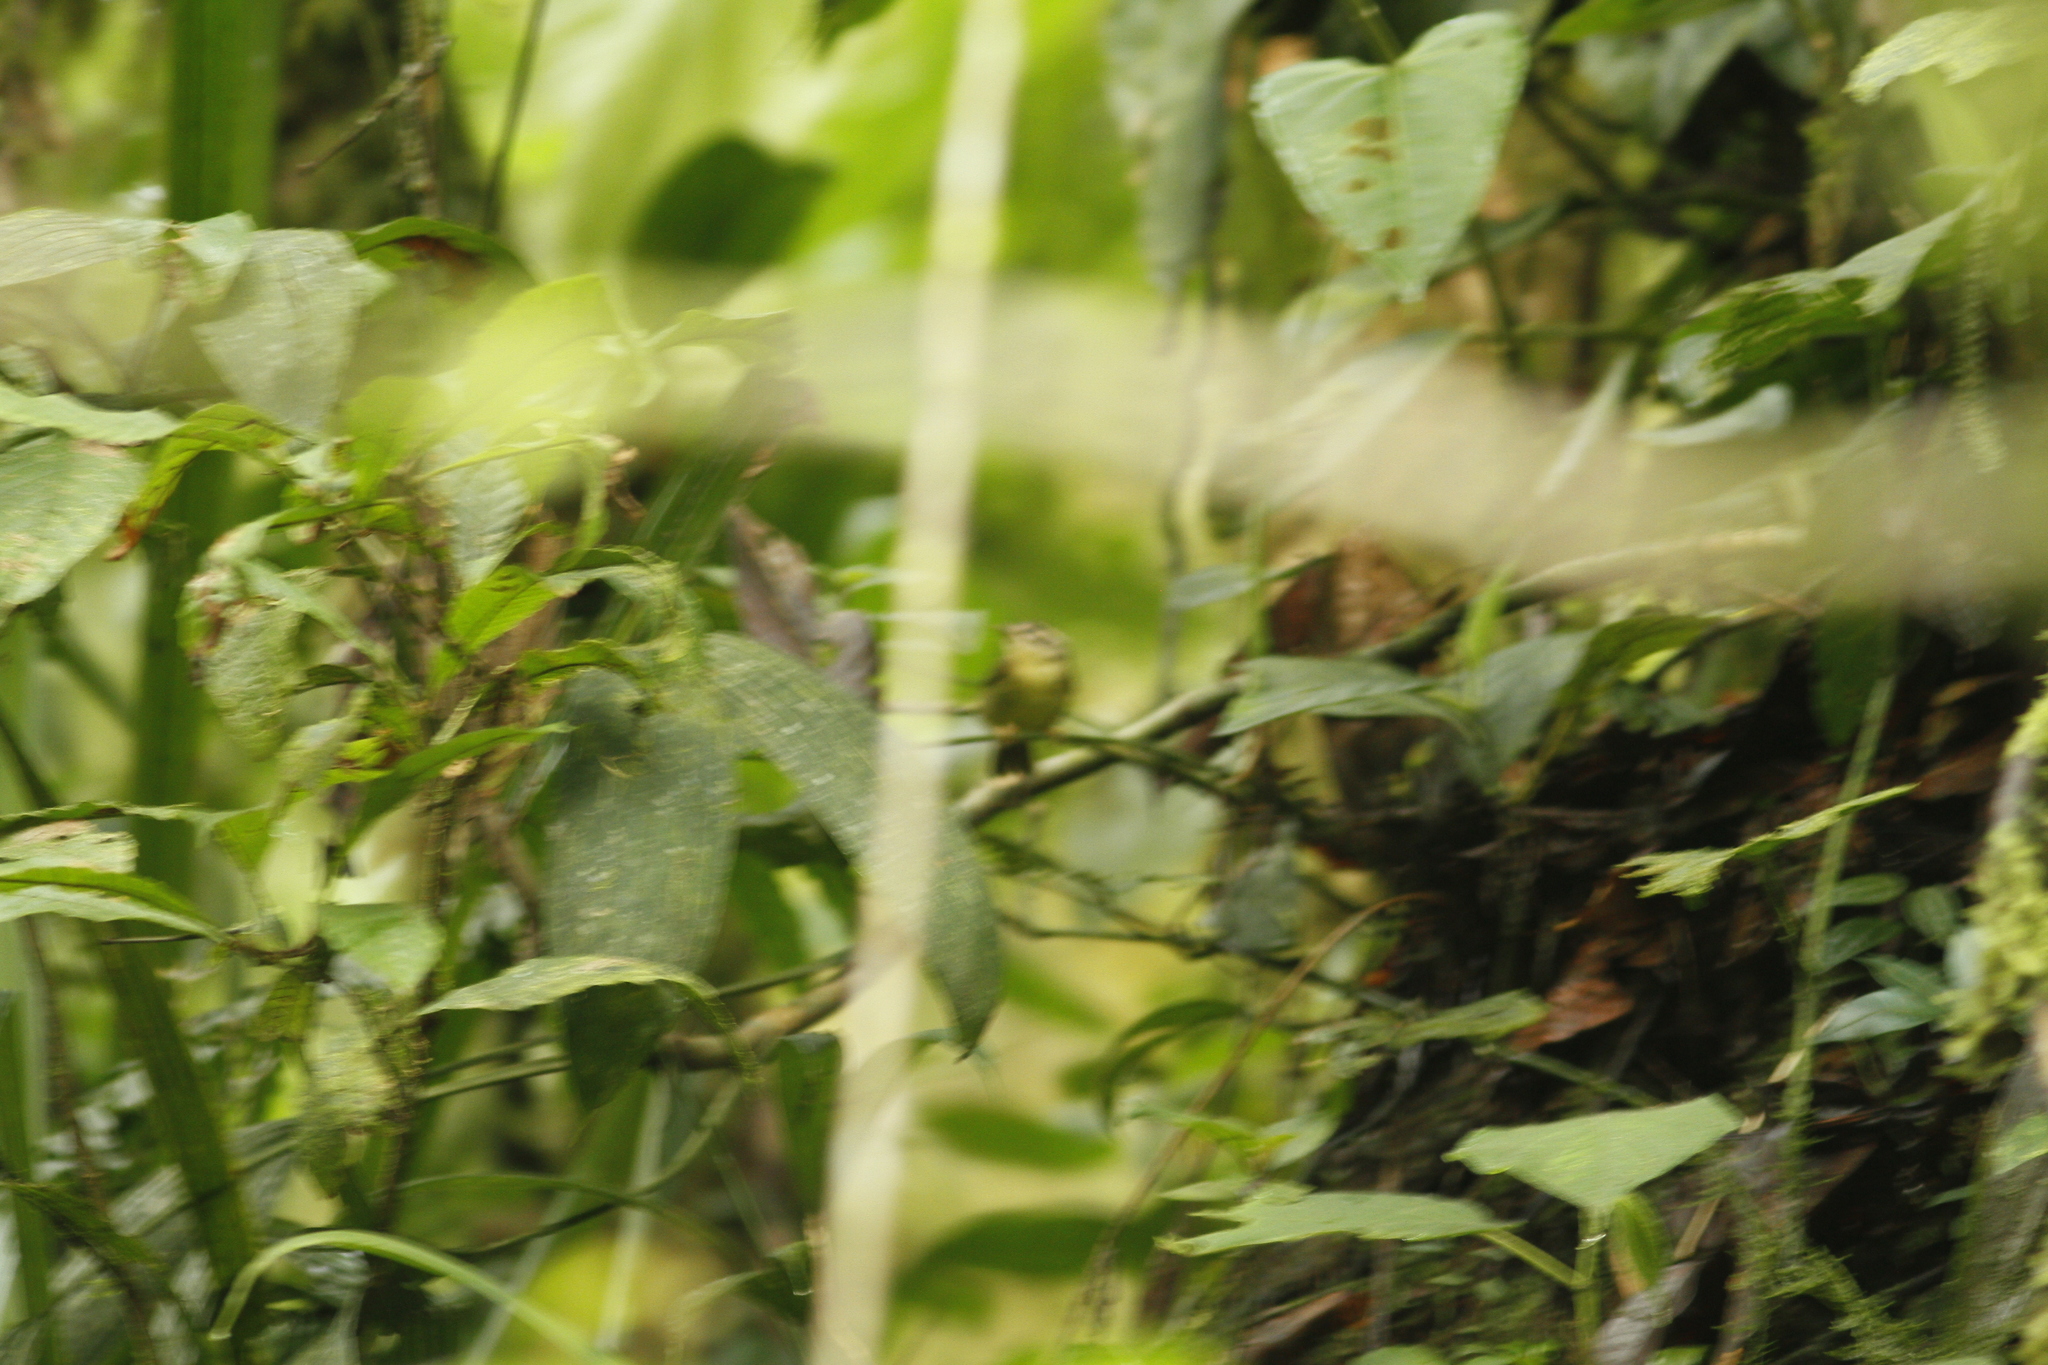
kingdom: Animalia
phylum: Chordata
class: Aves
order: Passeriformes
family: Parulidae
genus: Basileuterus
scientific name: Basileuterus tristriatus
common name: Three-striped warbler
